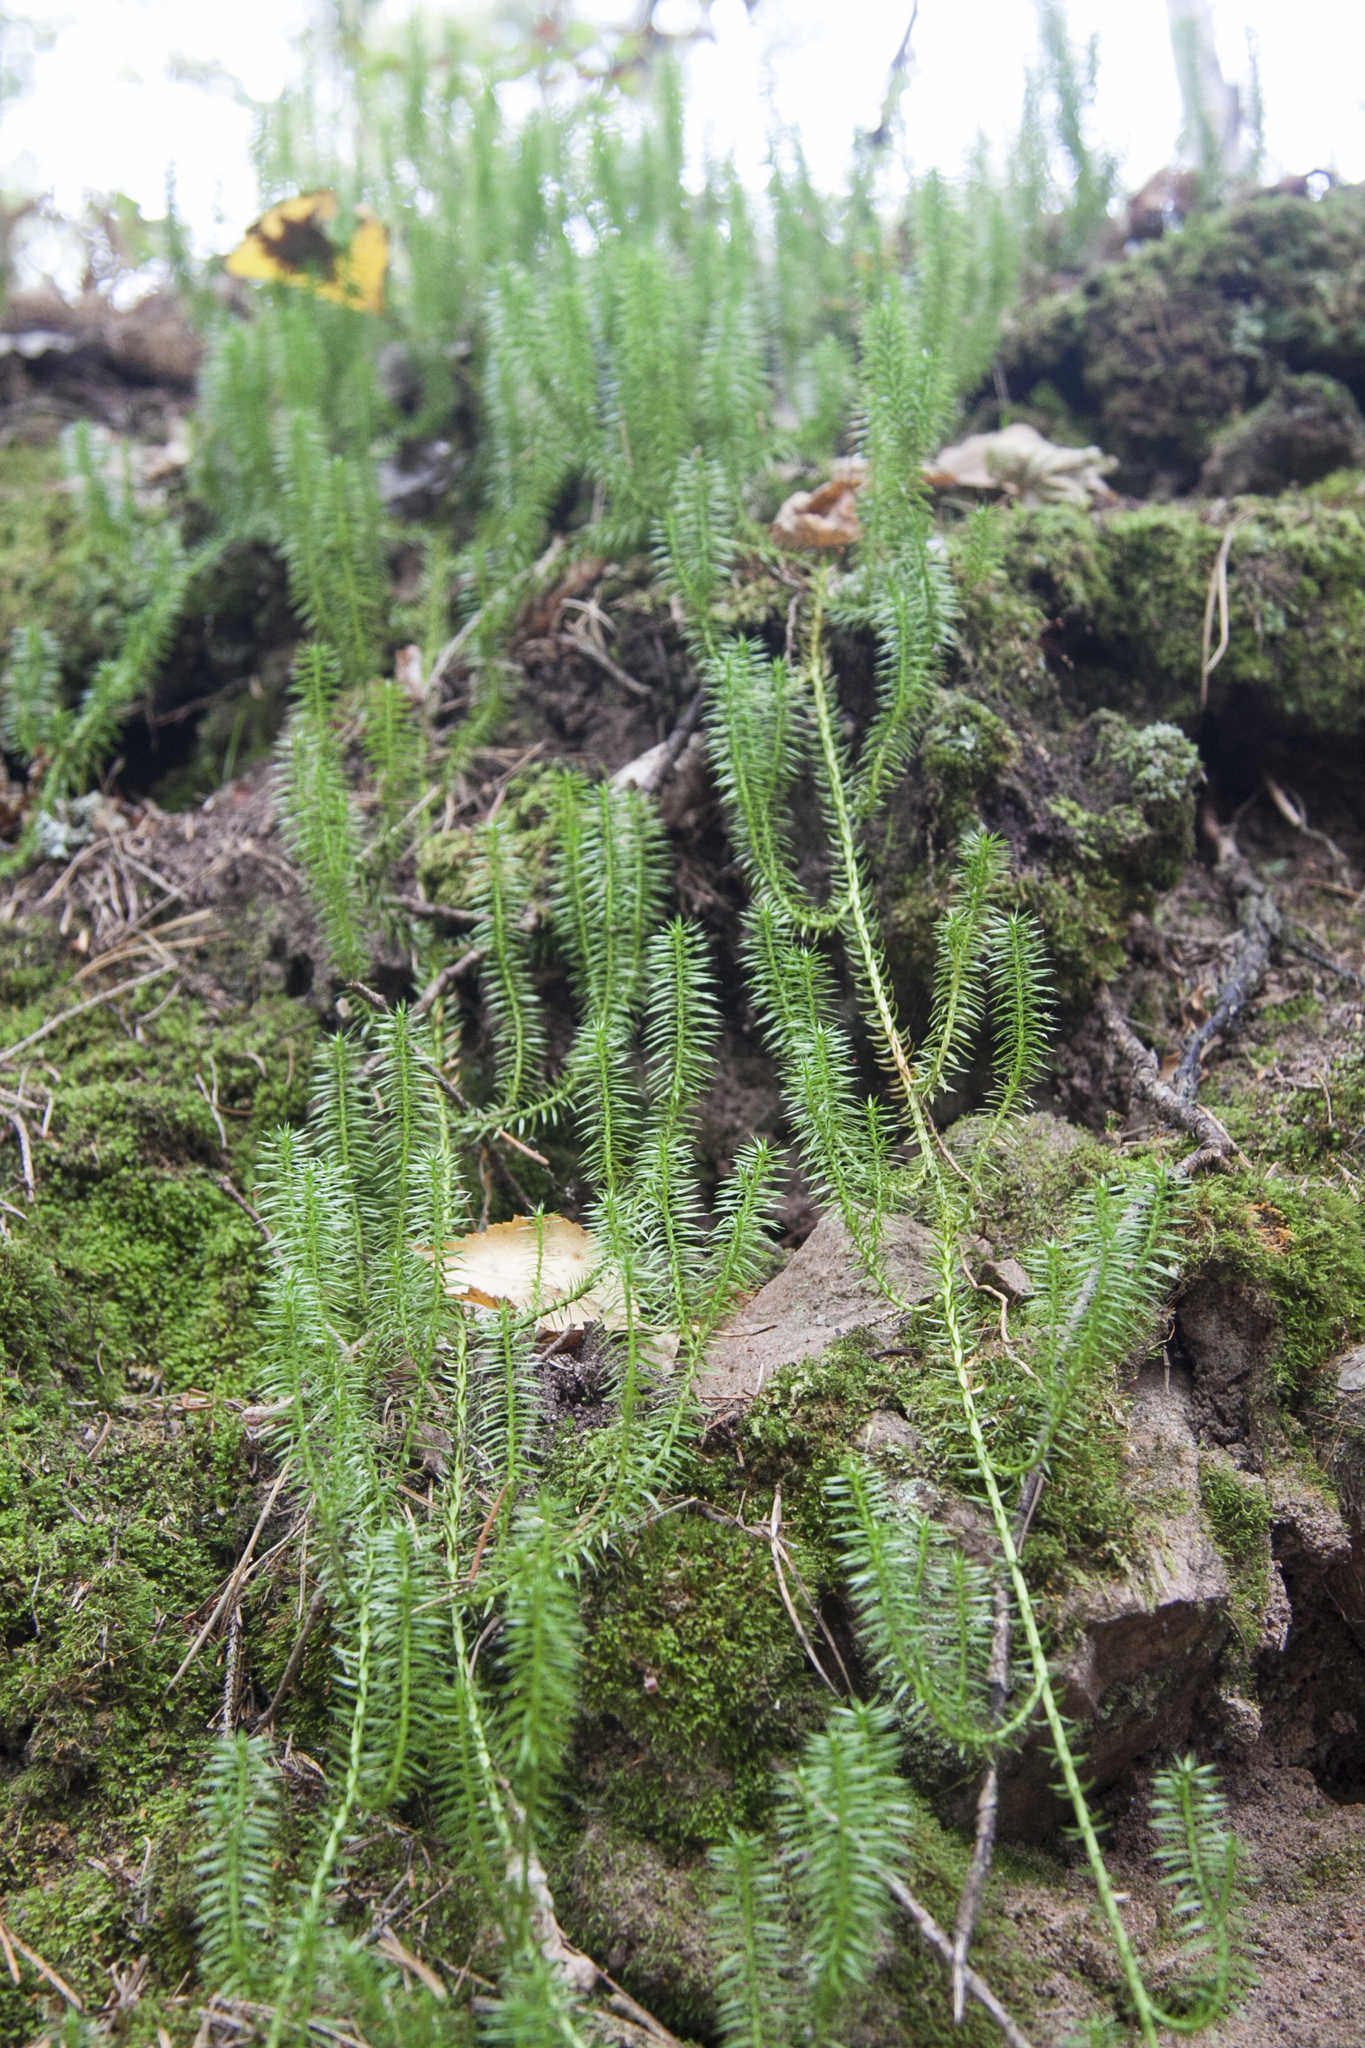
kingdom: Plantae
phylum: Tracheophyta
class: Lycopodiopsida
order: Lycopodiales
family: Lycopodiaceae
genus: Spinulum
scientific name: Spinulum annotinum
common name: Interrupted club-moss
